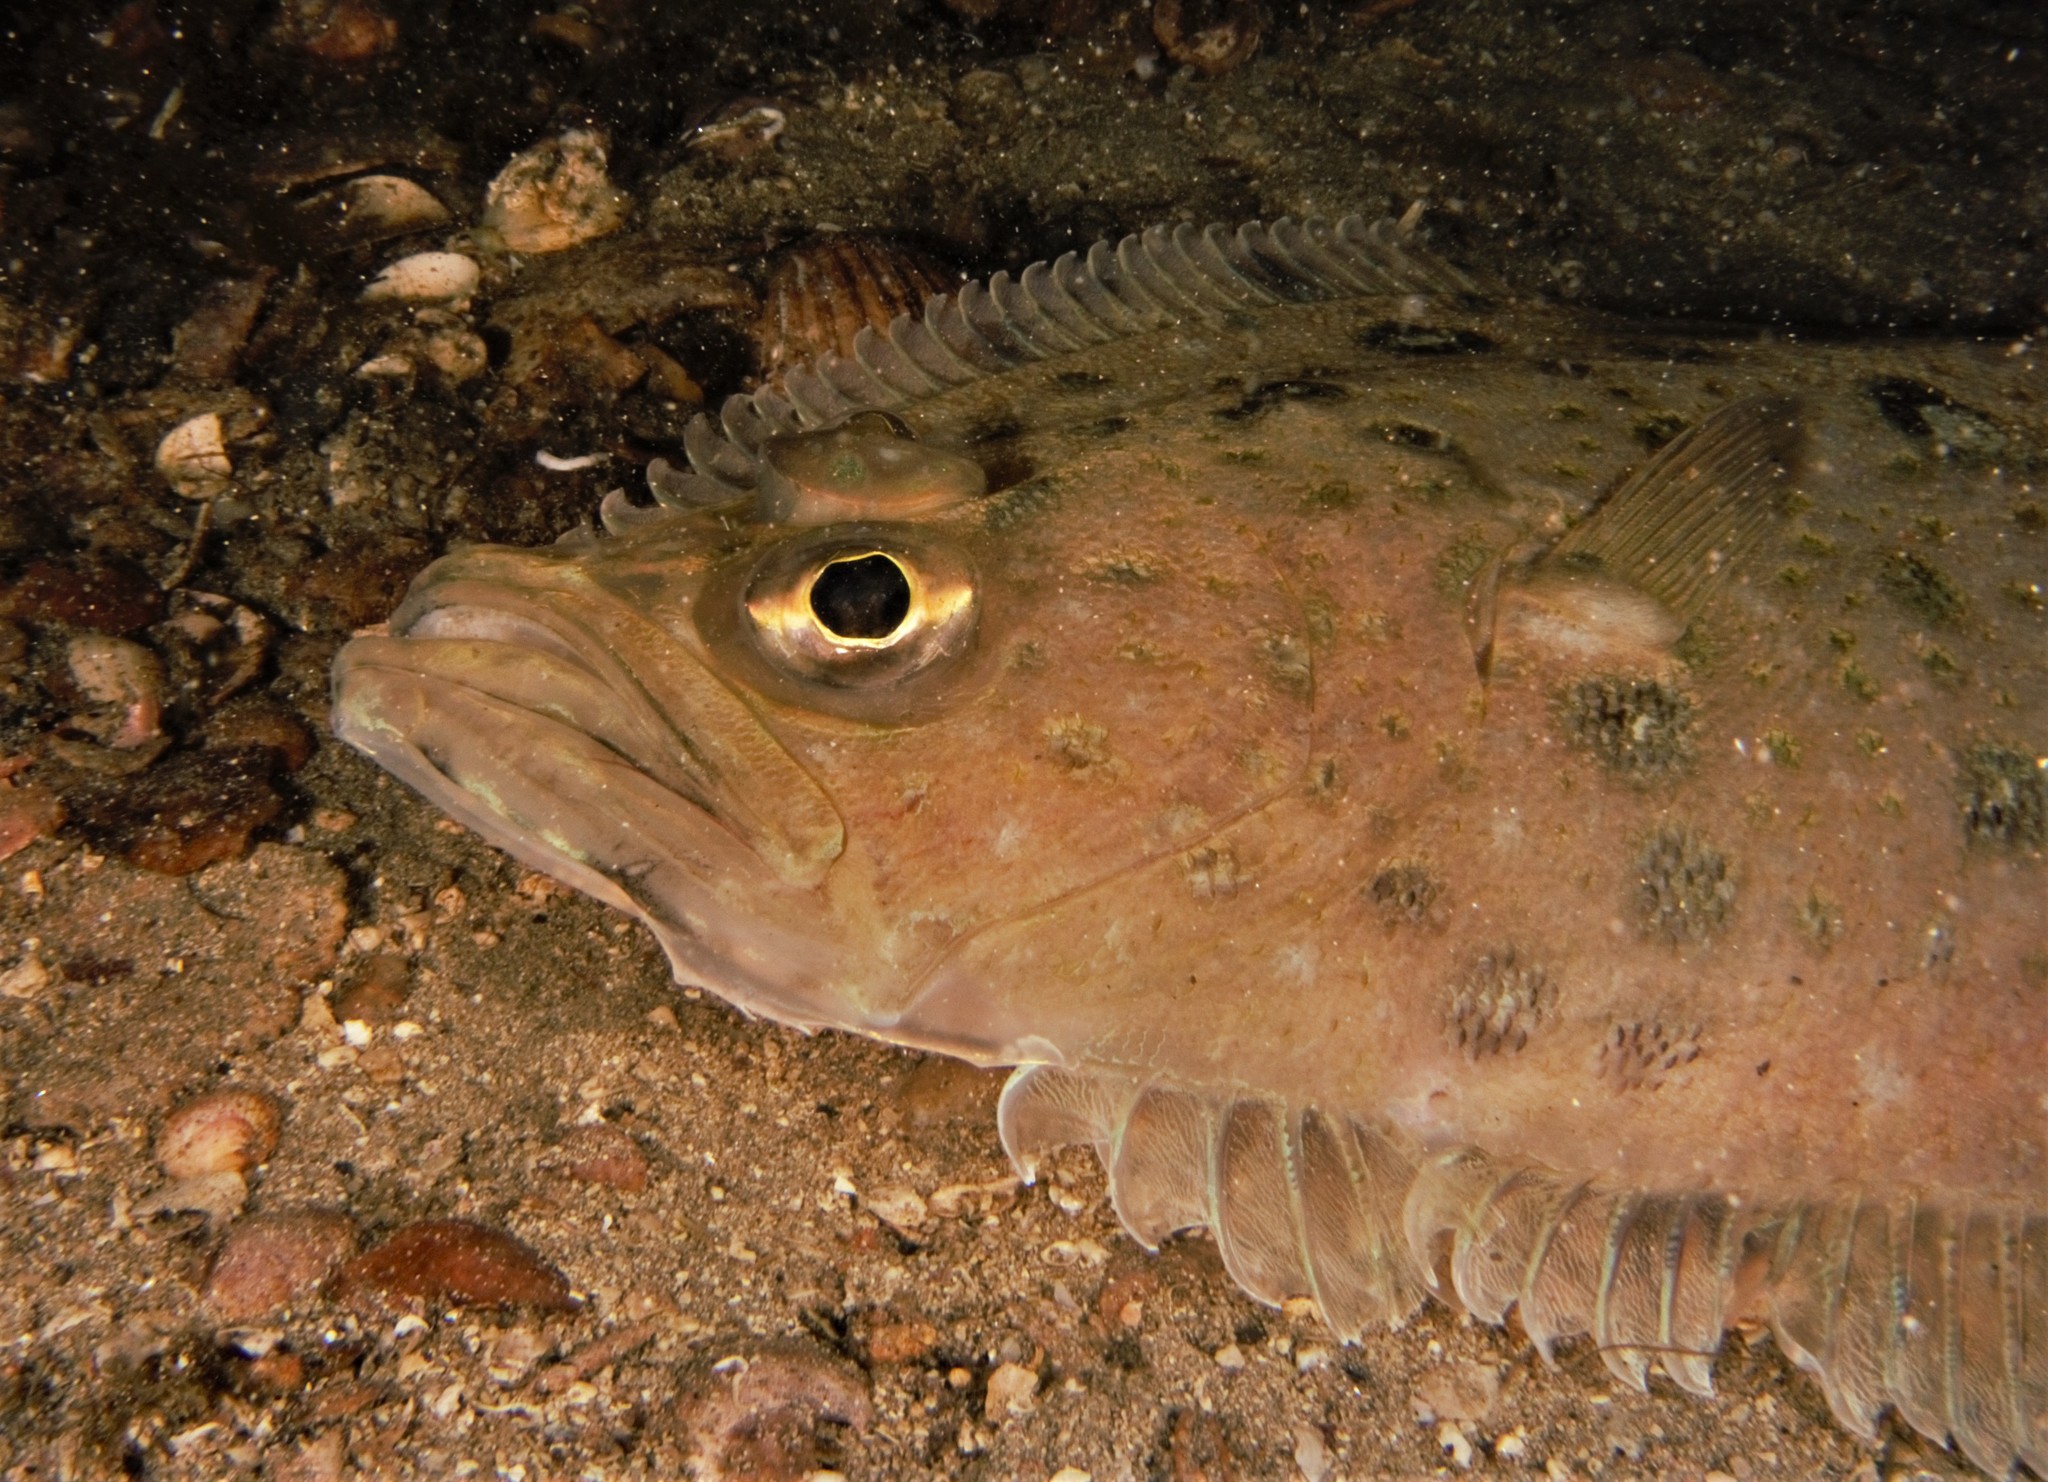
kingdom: Animalia
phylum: Chordata
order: Pleuronectiformes
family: Pleuronectidae
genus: Hippoglossoides
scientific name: Hippoglossoides platessoides
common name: Long rough dab
